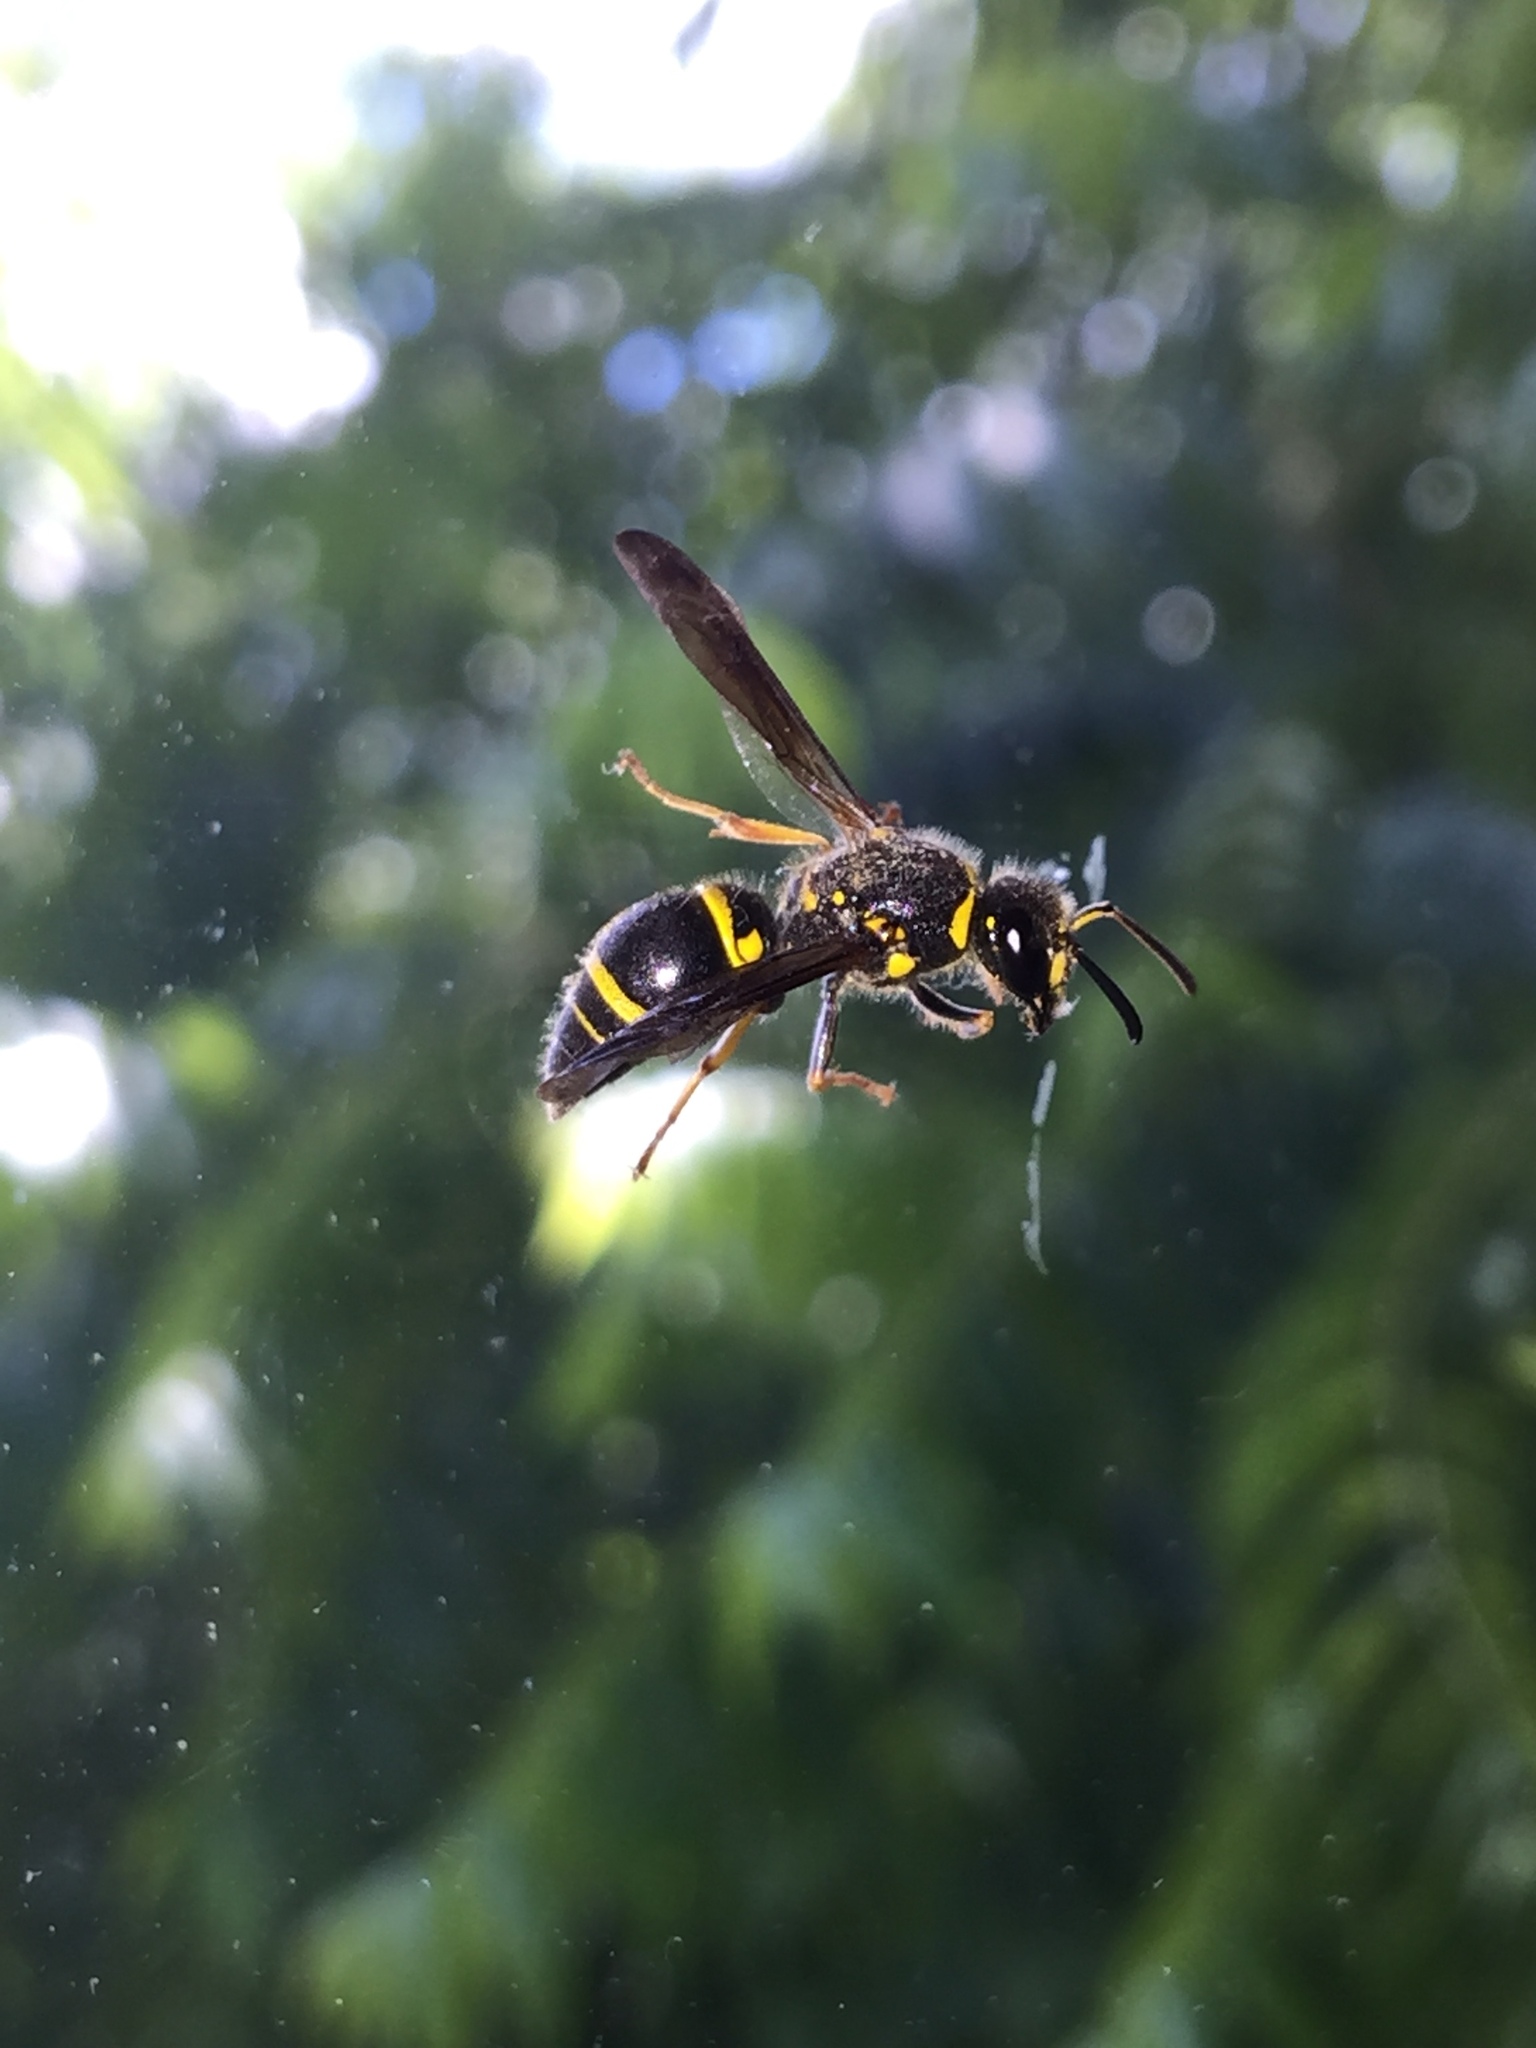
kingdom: Animalia
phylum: Arthropoda
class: Insecta
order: Hymenoptera
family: Vespidae
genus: Ancistrocerus
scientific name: Ancistrocerus campestris
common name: Smiling mason wasp
